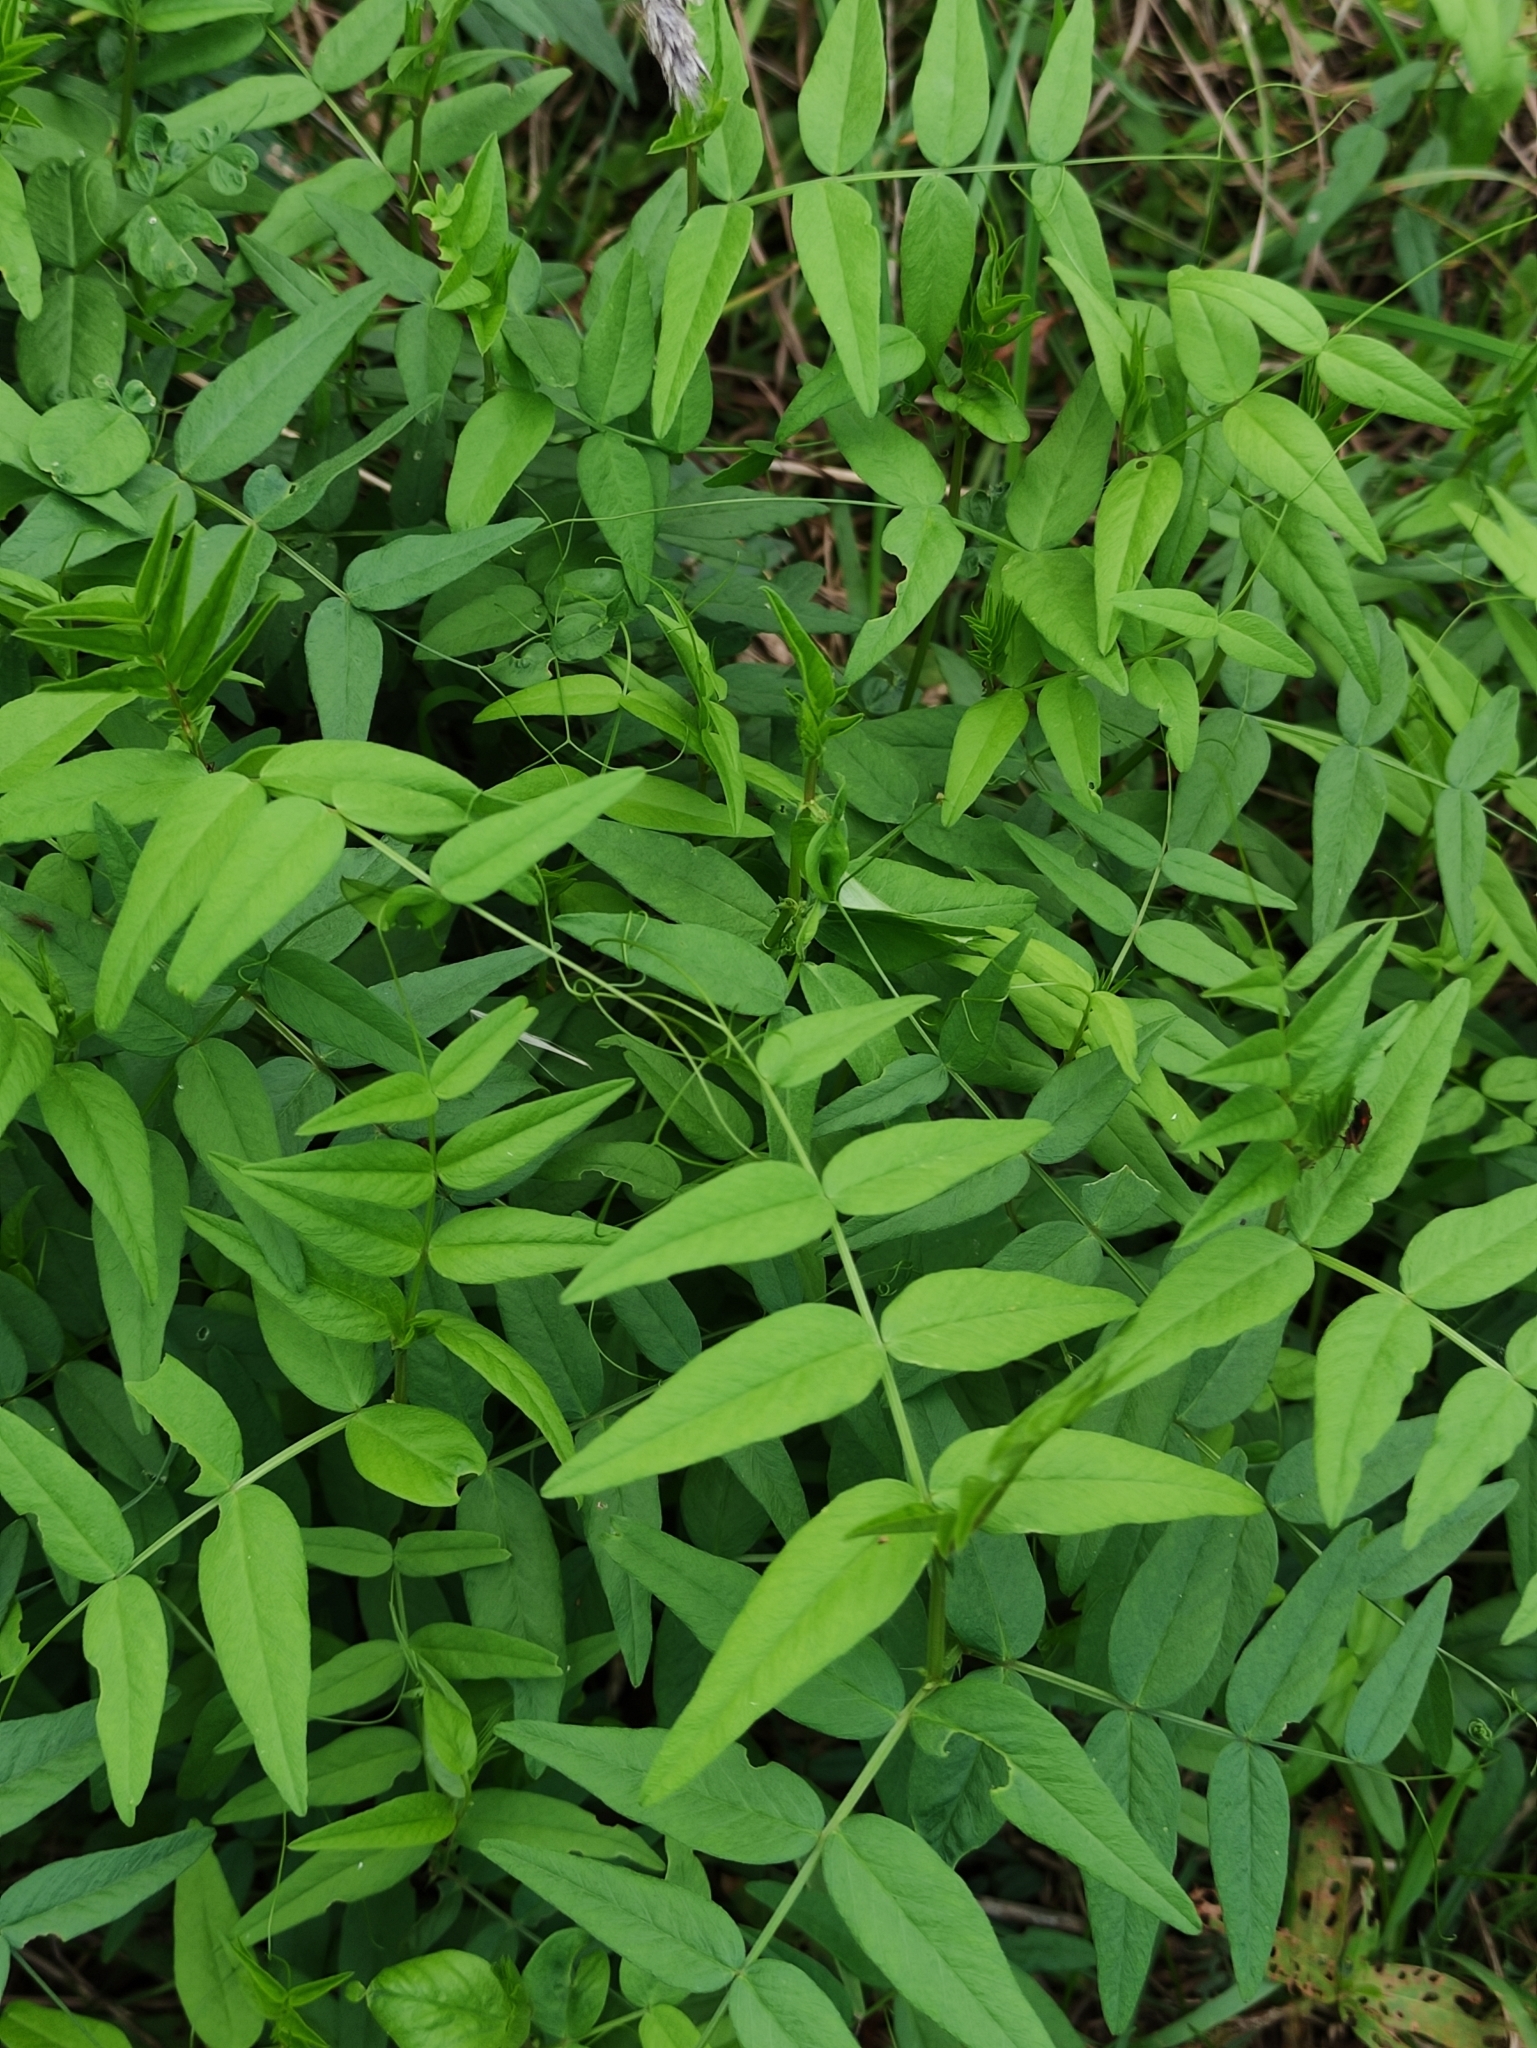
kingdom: Plantae
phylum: Tracheophyta
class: Magnoliopsida
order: Fabales
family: Fabaceae
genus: Vicia
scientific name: Vicia sepium
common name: Bush vetch
